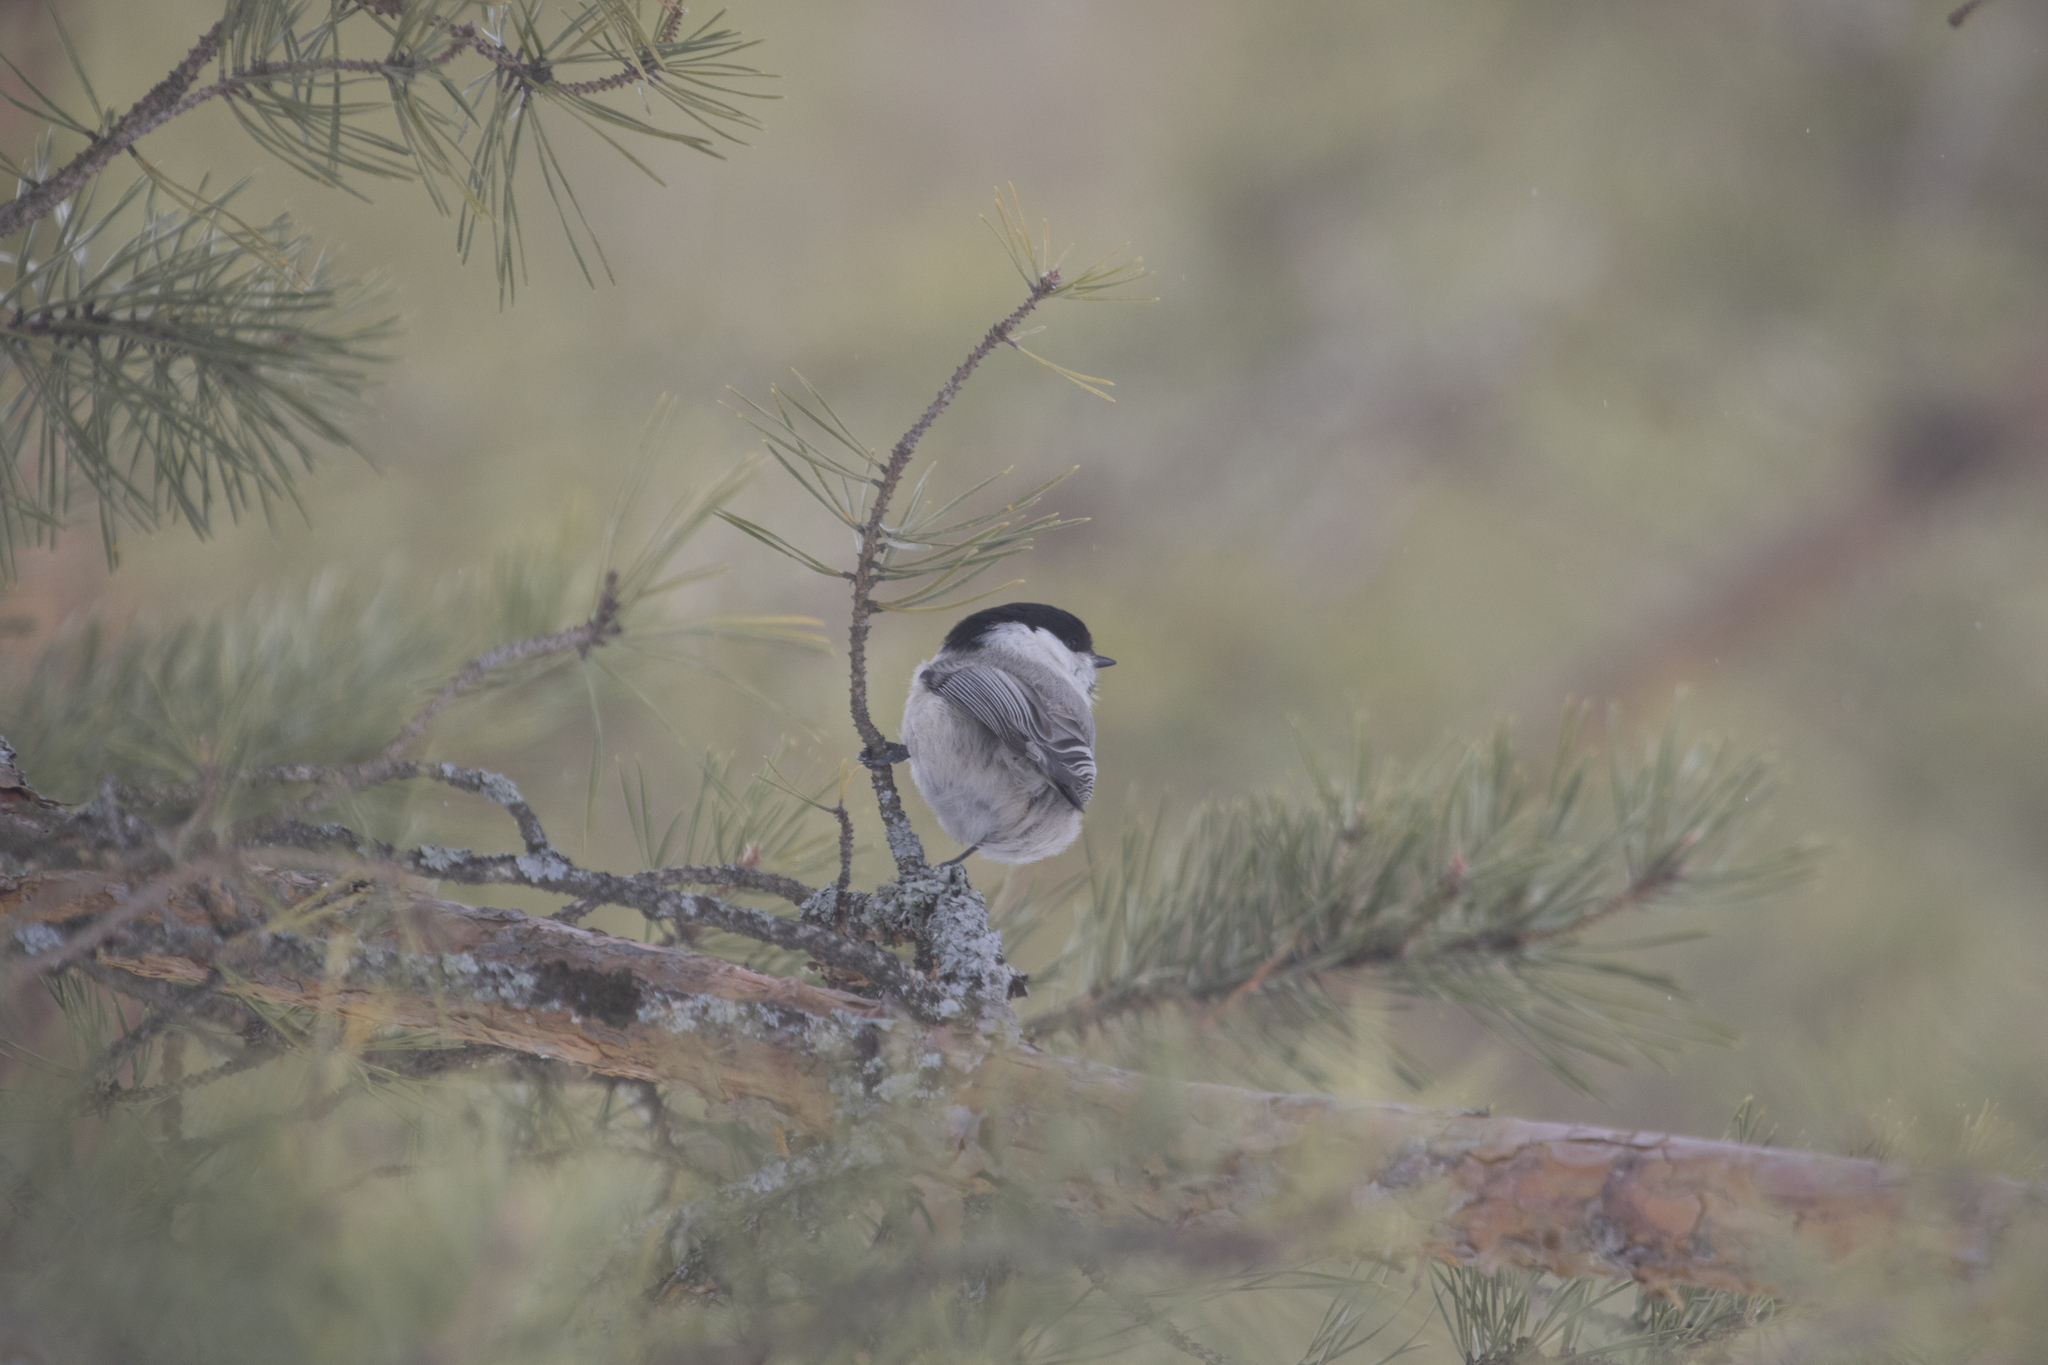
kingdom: Animalia
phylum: Chordata
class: Aves
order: Passeriformes
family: Paridae
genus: Poecile
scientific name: Poecile montanus
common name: Willow tit
